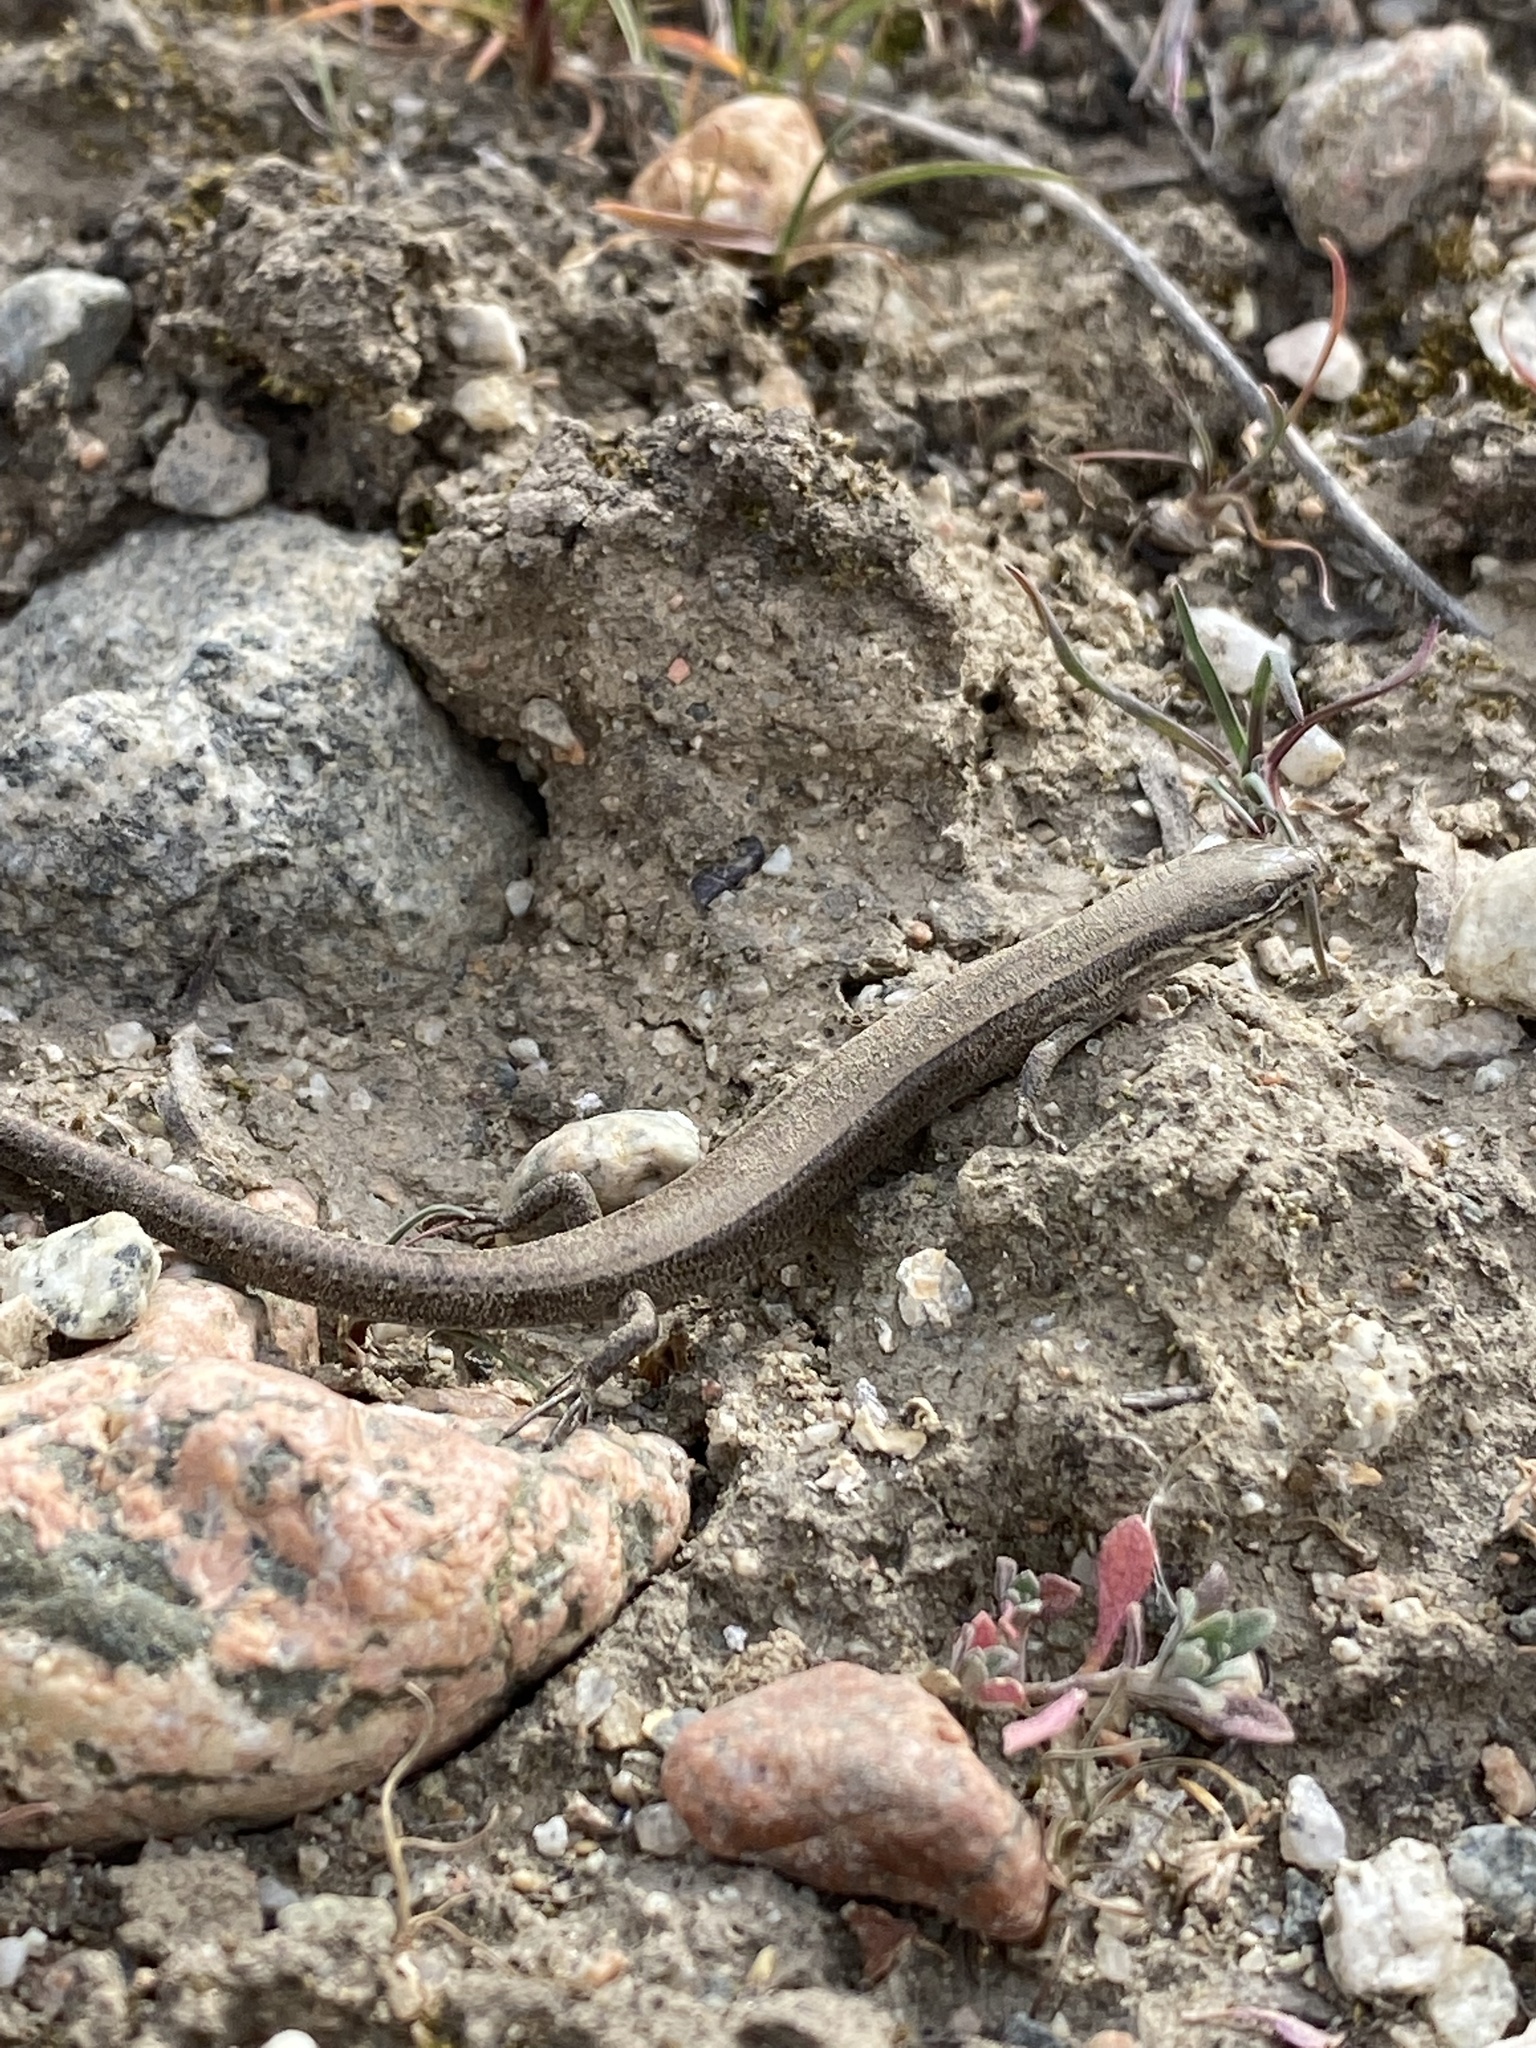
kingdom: Animalia
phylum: Chordata
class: Squamata
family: Scincidae
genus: Ablepharus
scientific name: Ablepharus deserti
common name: Desert lidless skink
